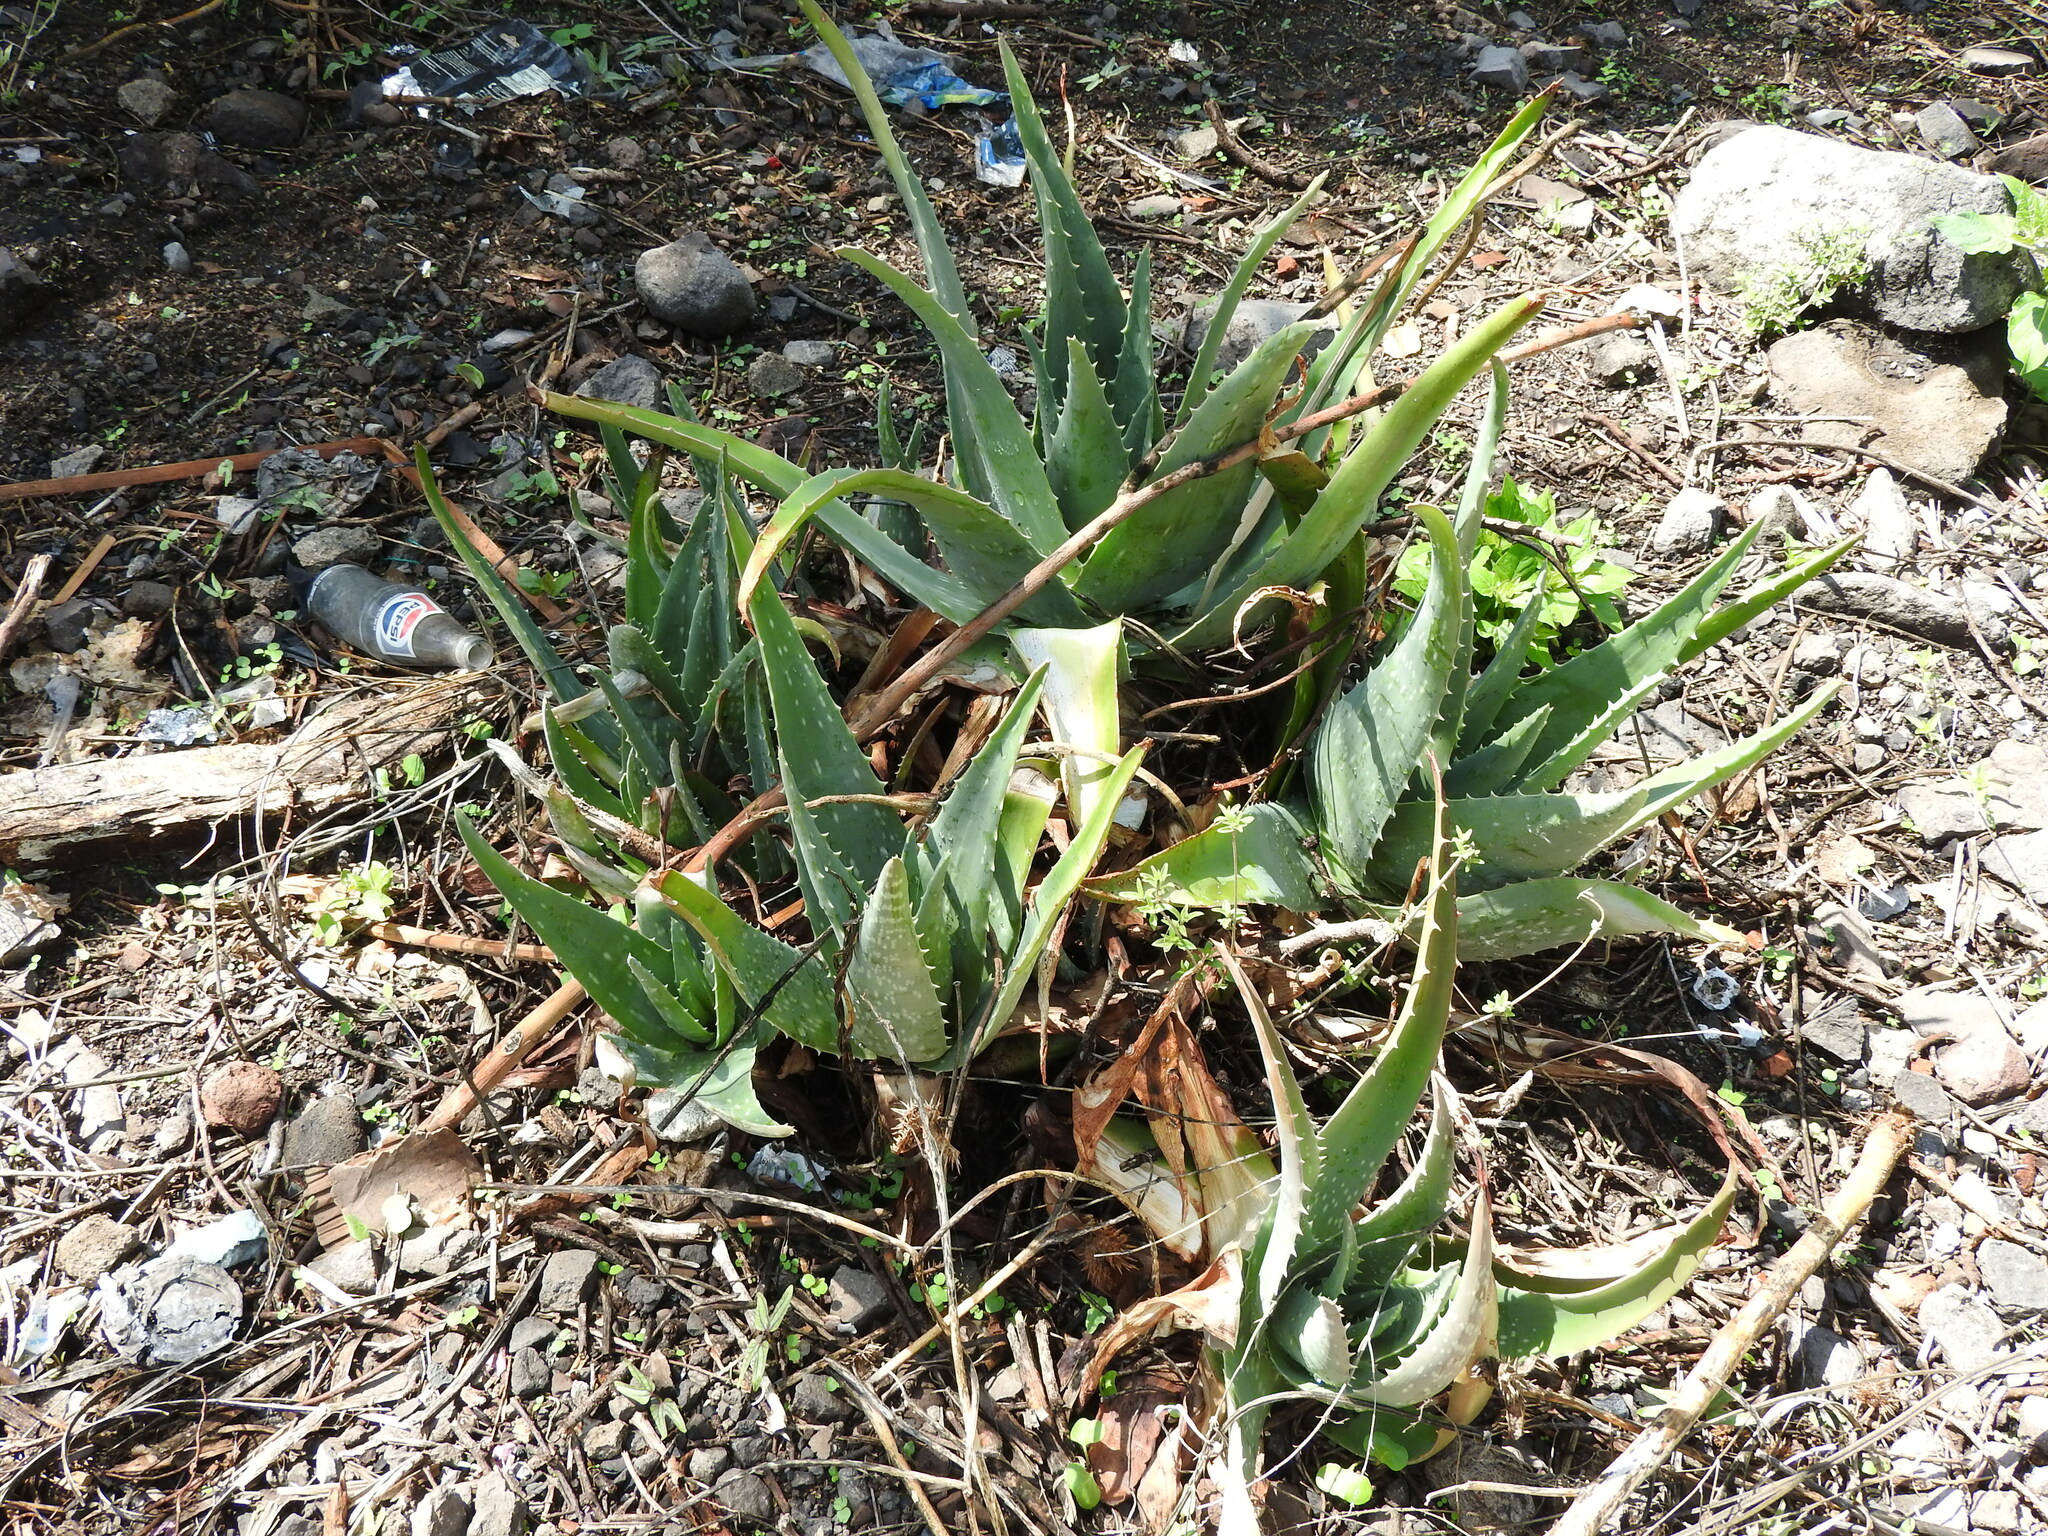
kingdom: Plantae
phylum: Tracheophyta
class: Liliopsida
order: Asparagales
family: Asphodelaceae
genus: Aloe
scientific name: Aloe vera
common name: Barbados aloe
